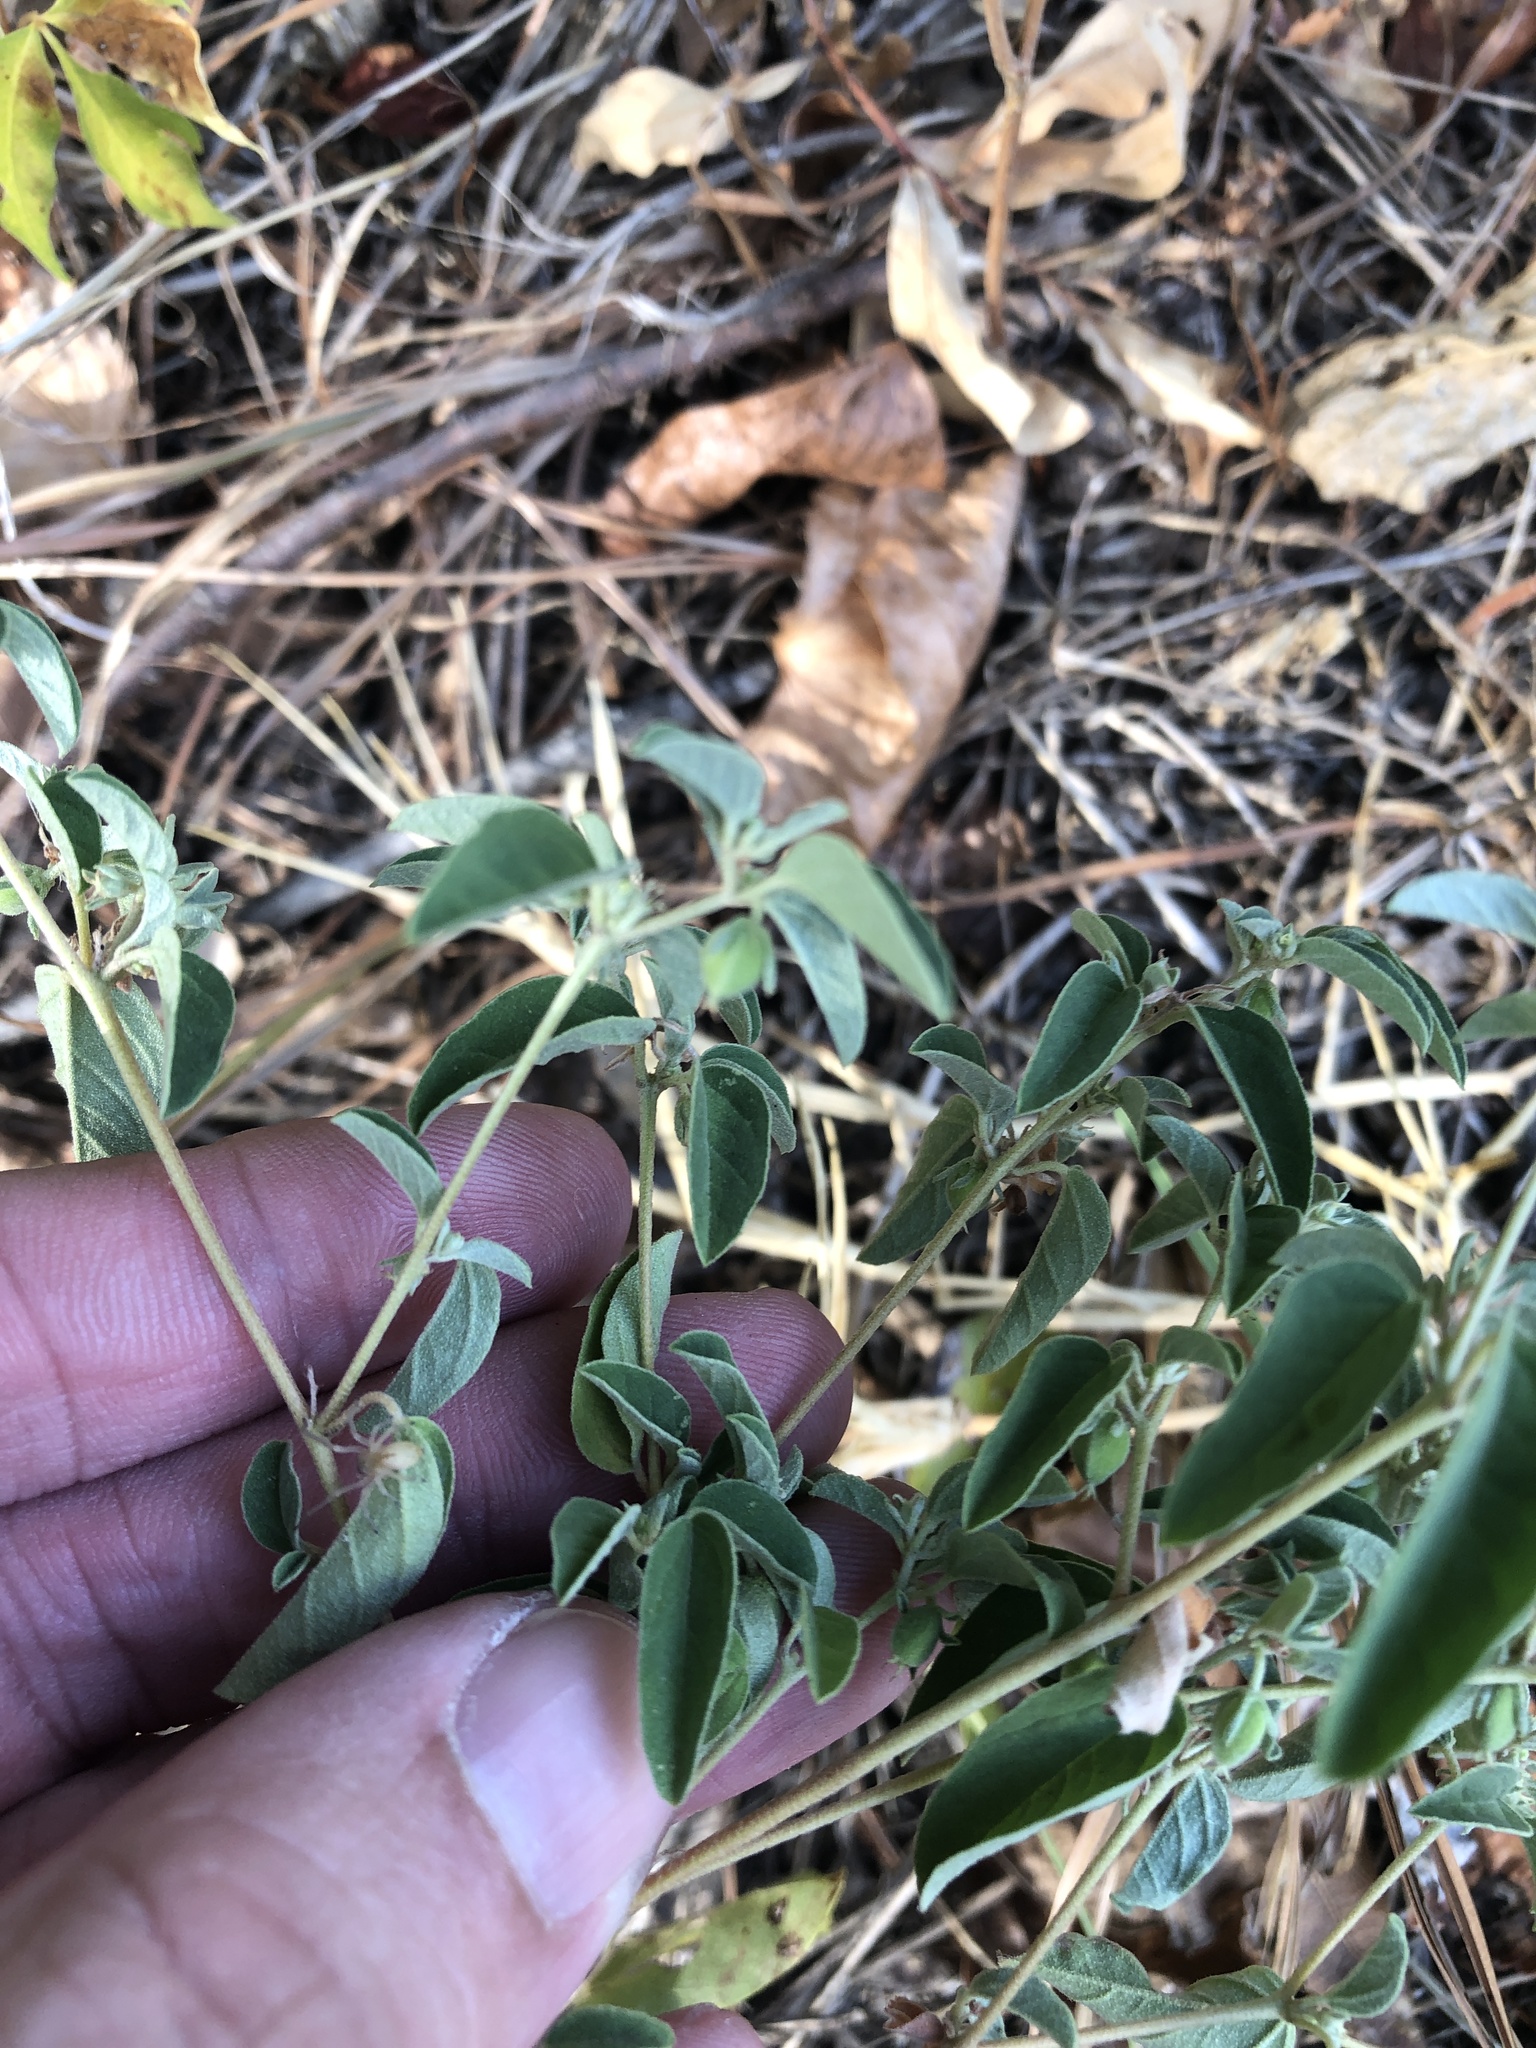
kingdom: Plantae
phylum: Tracheophyta
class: Magnoliopsida
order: Malpighiales
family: Euphorbiaceae
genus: Croton
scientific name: Croton monanthogynus
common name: One-seed croton
